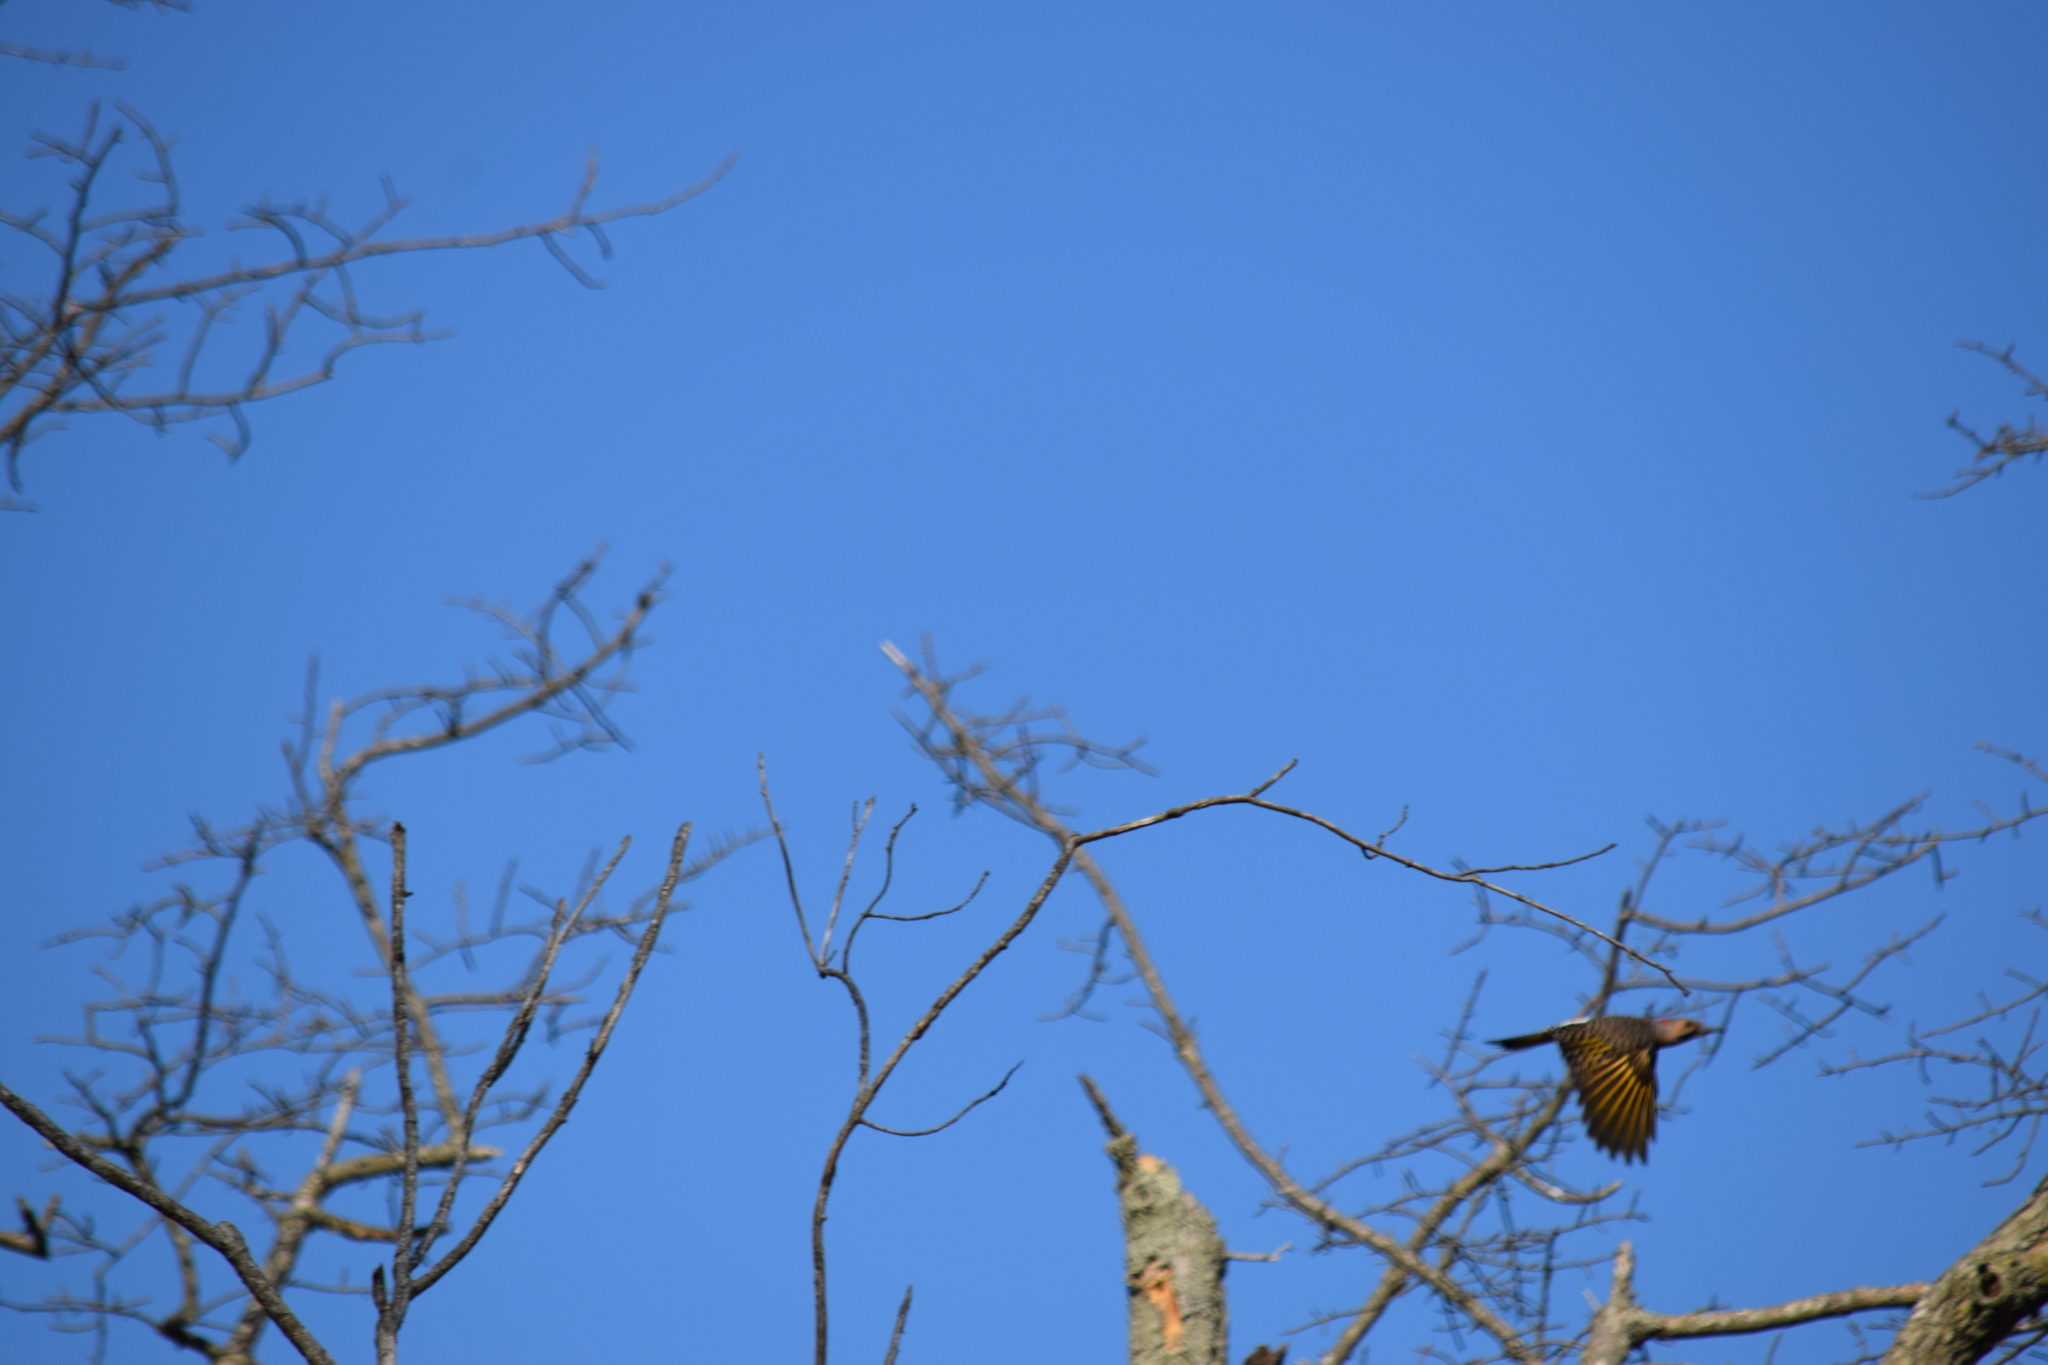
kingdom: Animalia
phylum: Chordata
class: Aves
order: Piciformes
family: Picidae
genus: Colaptes
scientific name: Colaptes auratus
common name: Northern flicker
